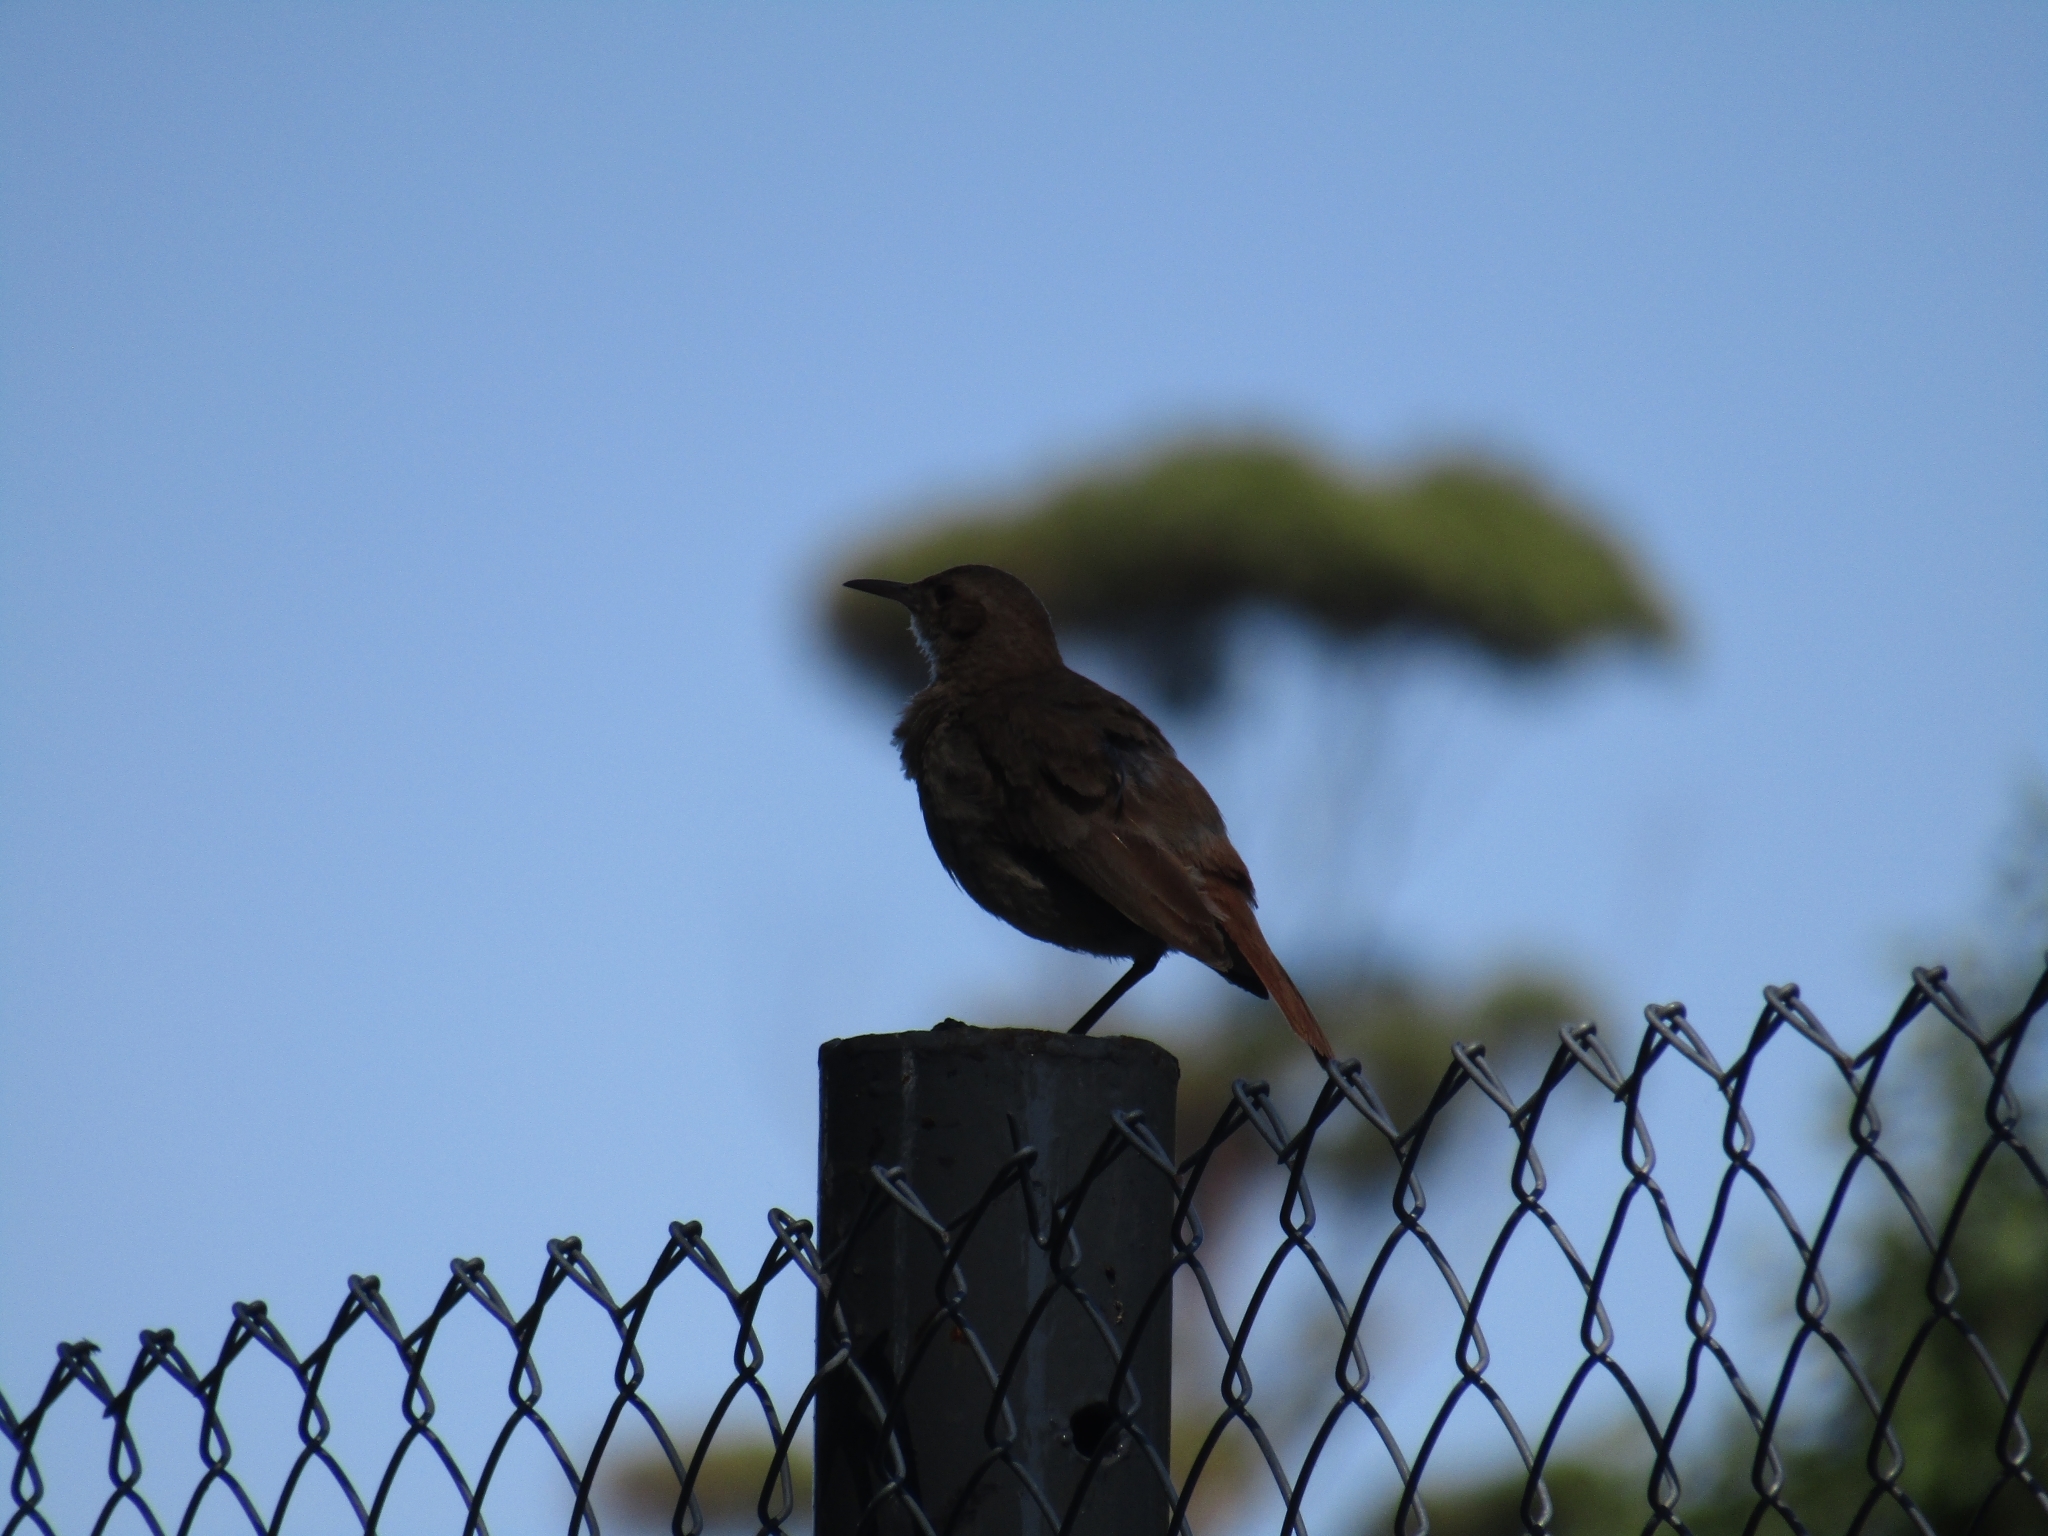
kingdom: Animalia
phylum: Chordata
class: Aves
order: Passeriformes
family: Furnariidae
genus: Furnarius
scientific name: Furnarius rufus
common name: Rufous hornero
